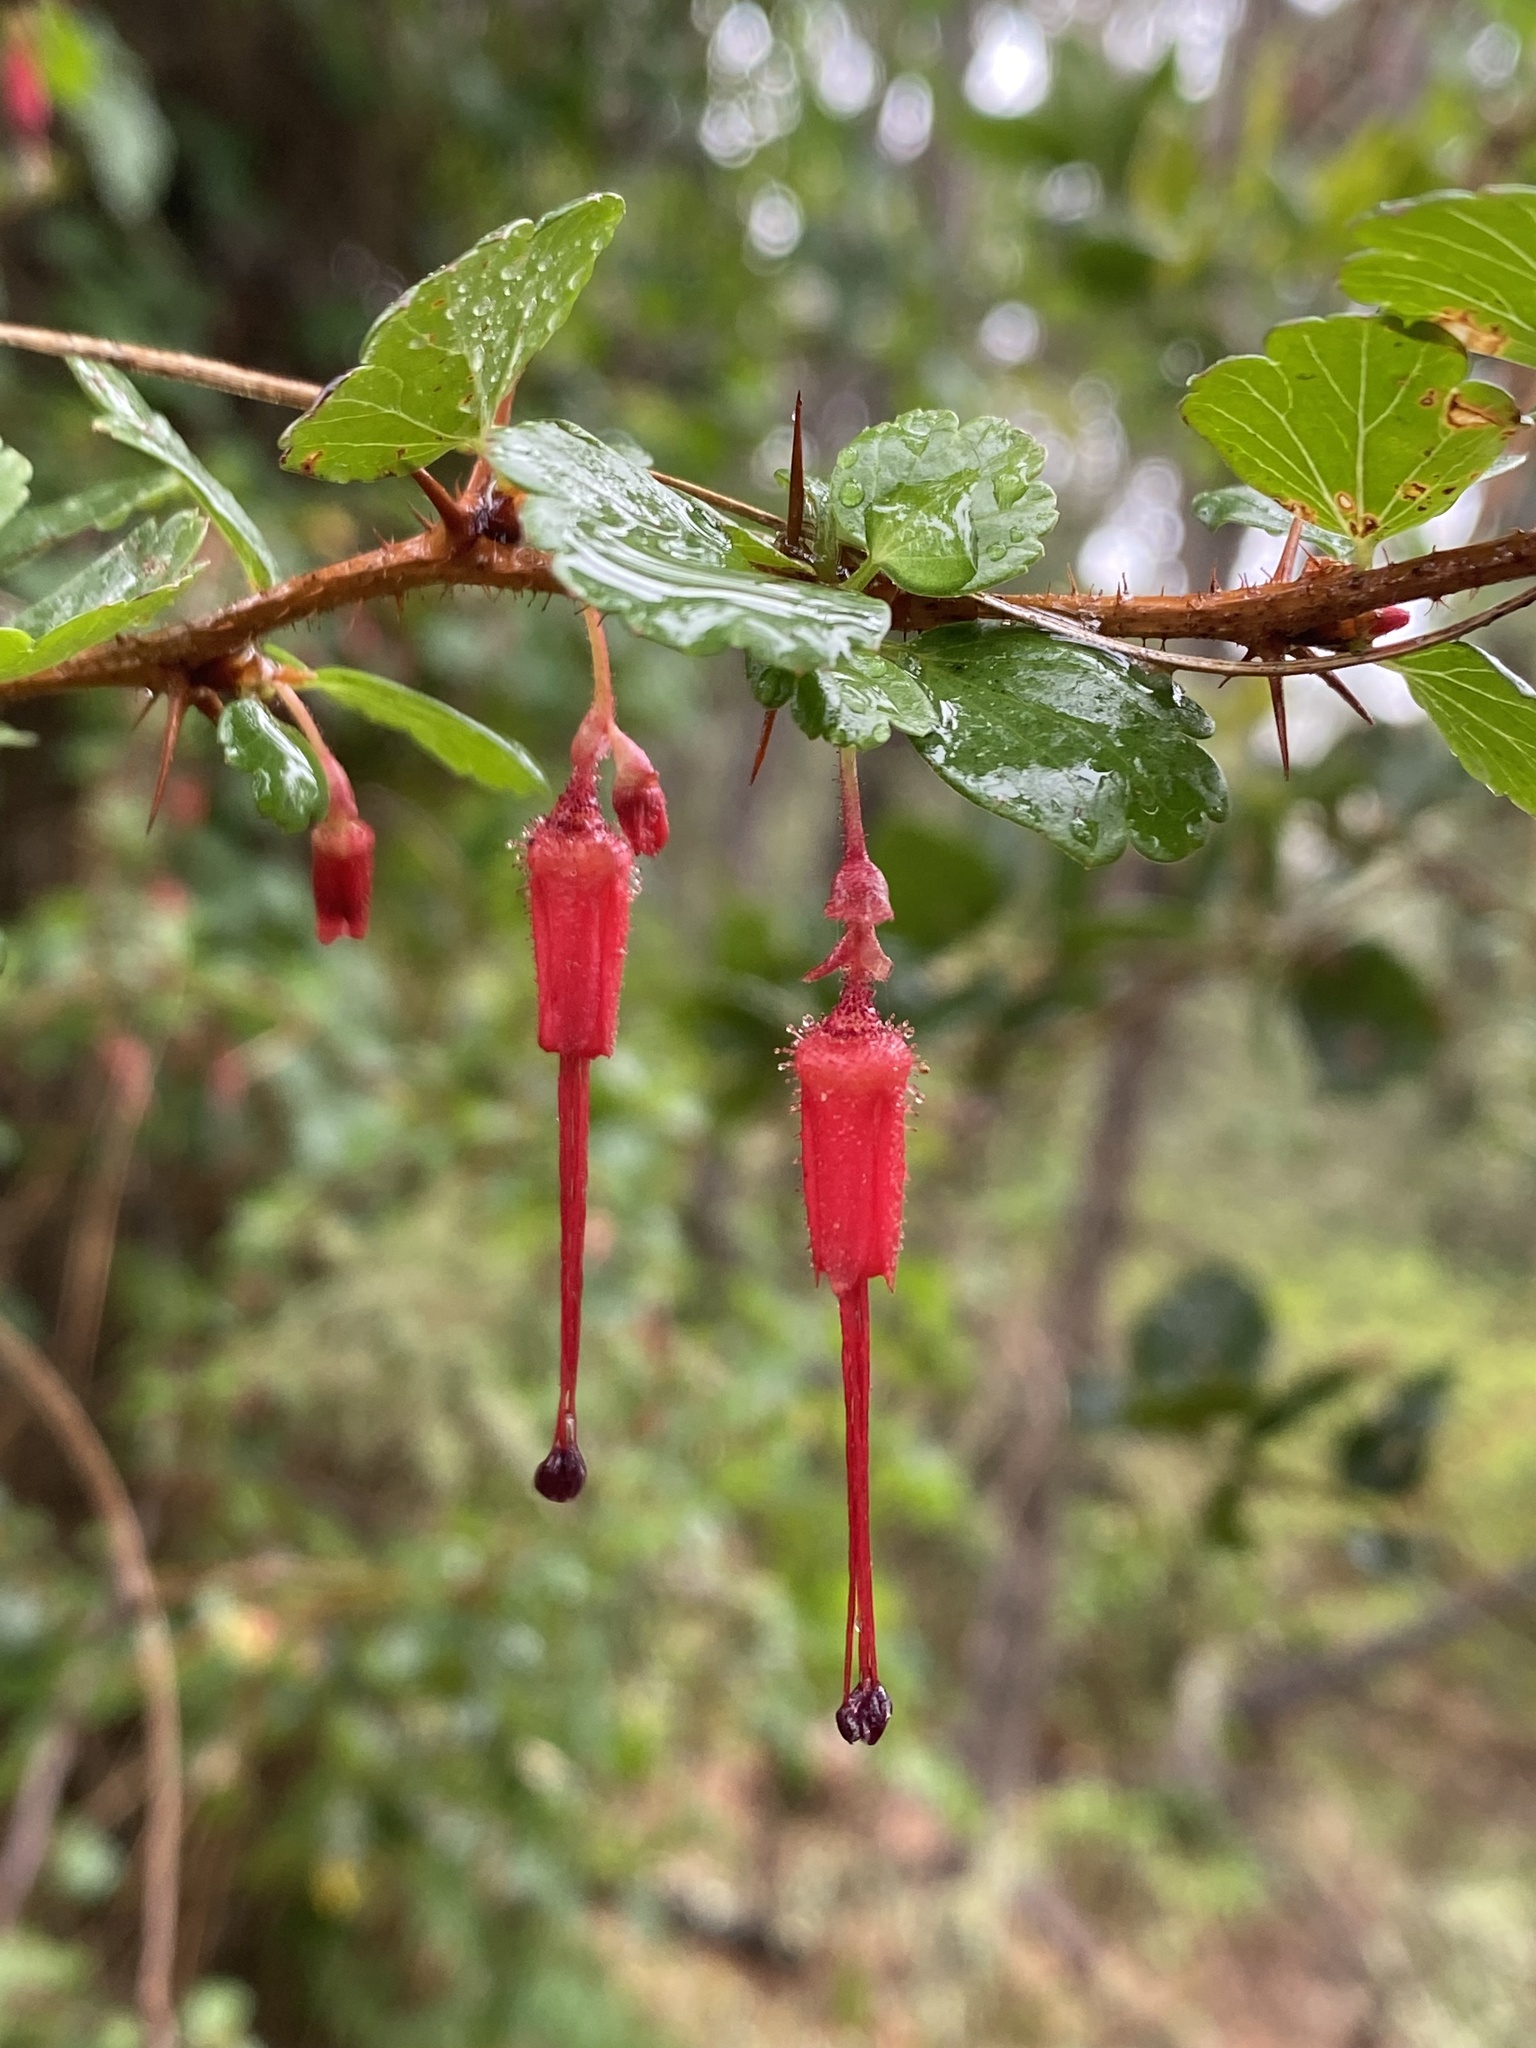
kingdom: Plantae
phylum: Tracheophyta
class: Magnoliopsida
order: Saxifragales
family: Grossulariaceae
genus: Ribes
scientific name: Ribes speciosum
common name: Fuchsia-flower gooseberry
